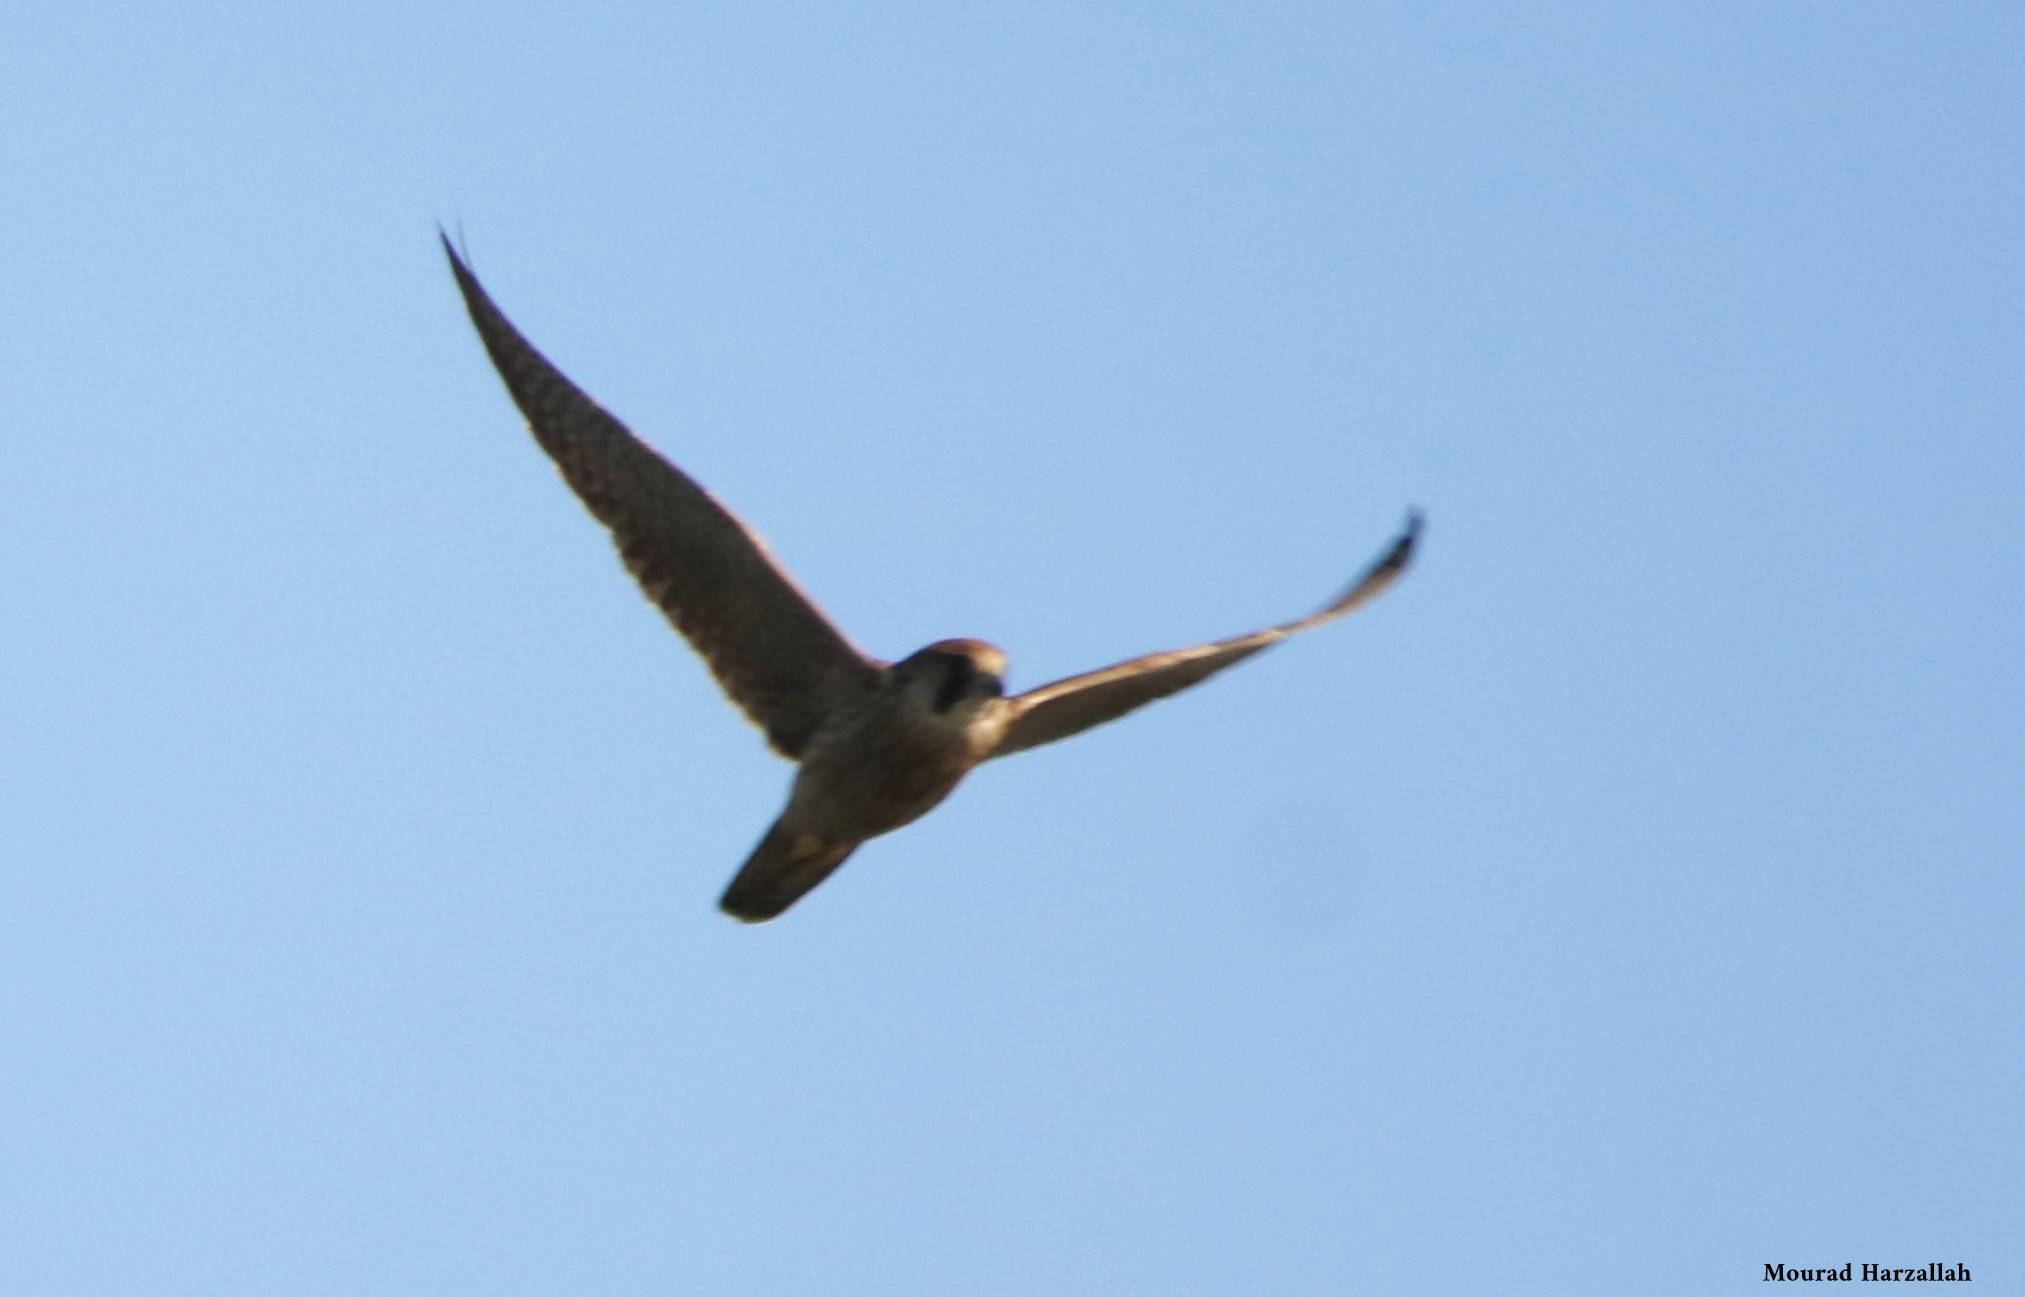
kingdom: Animalia
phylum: Chordata
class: Aves
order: Falconiformes
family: Falconidae
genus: Falco
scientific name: Falco biarmicus
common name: Lanner falcon
